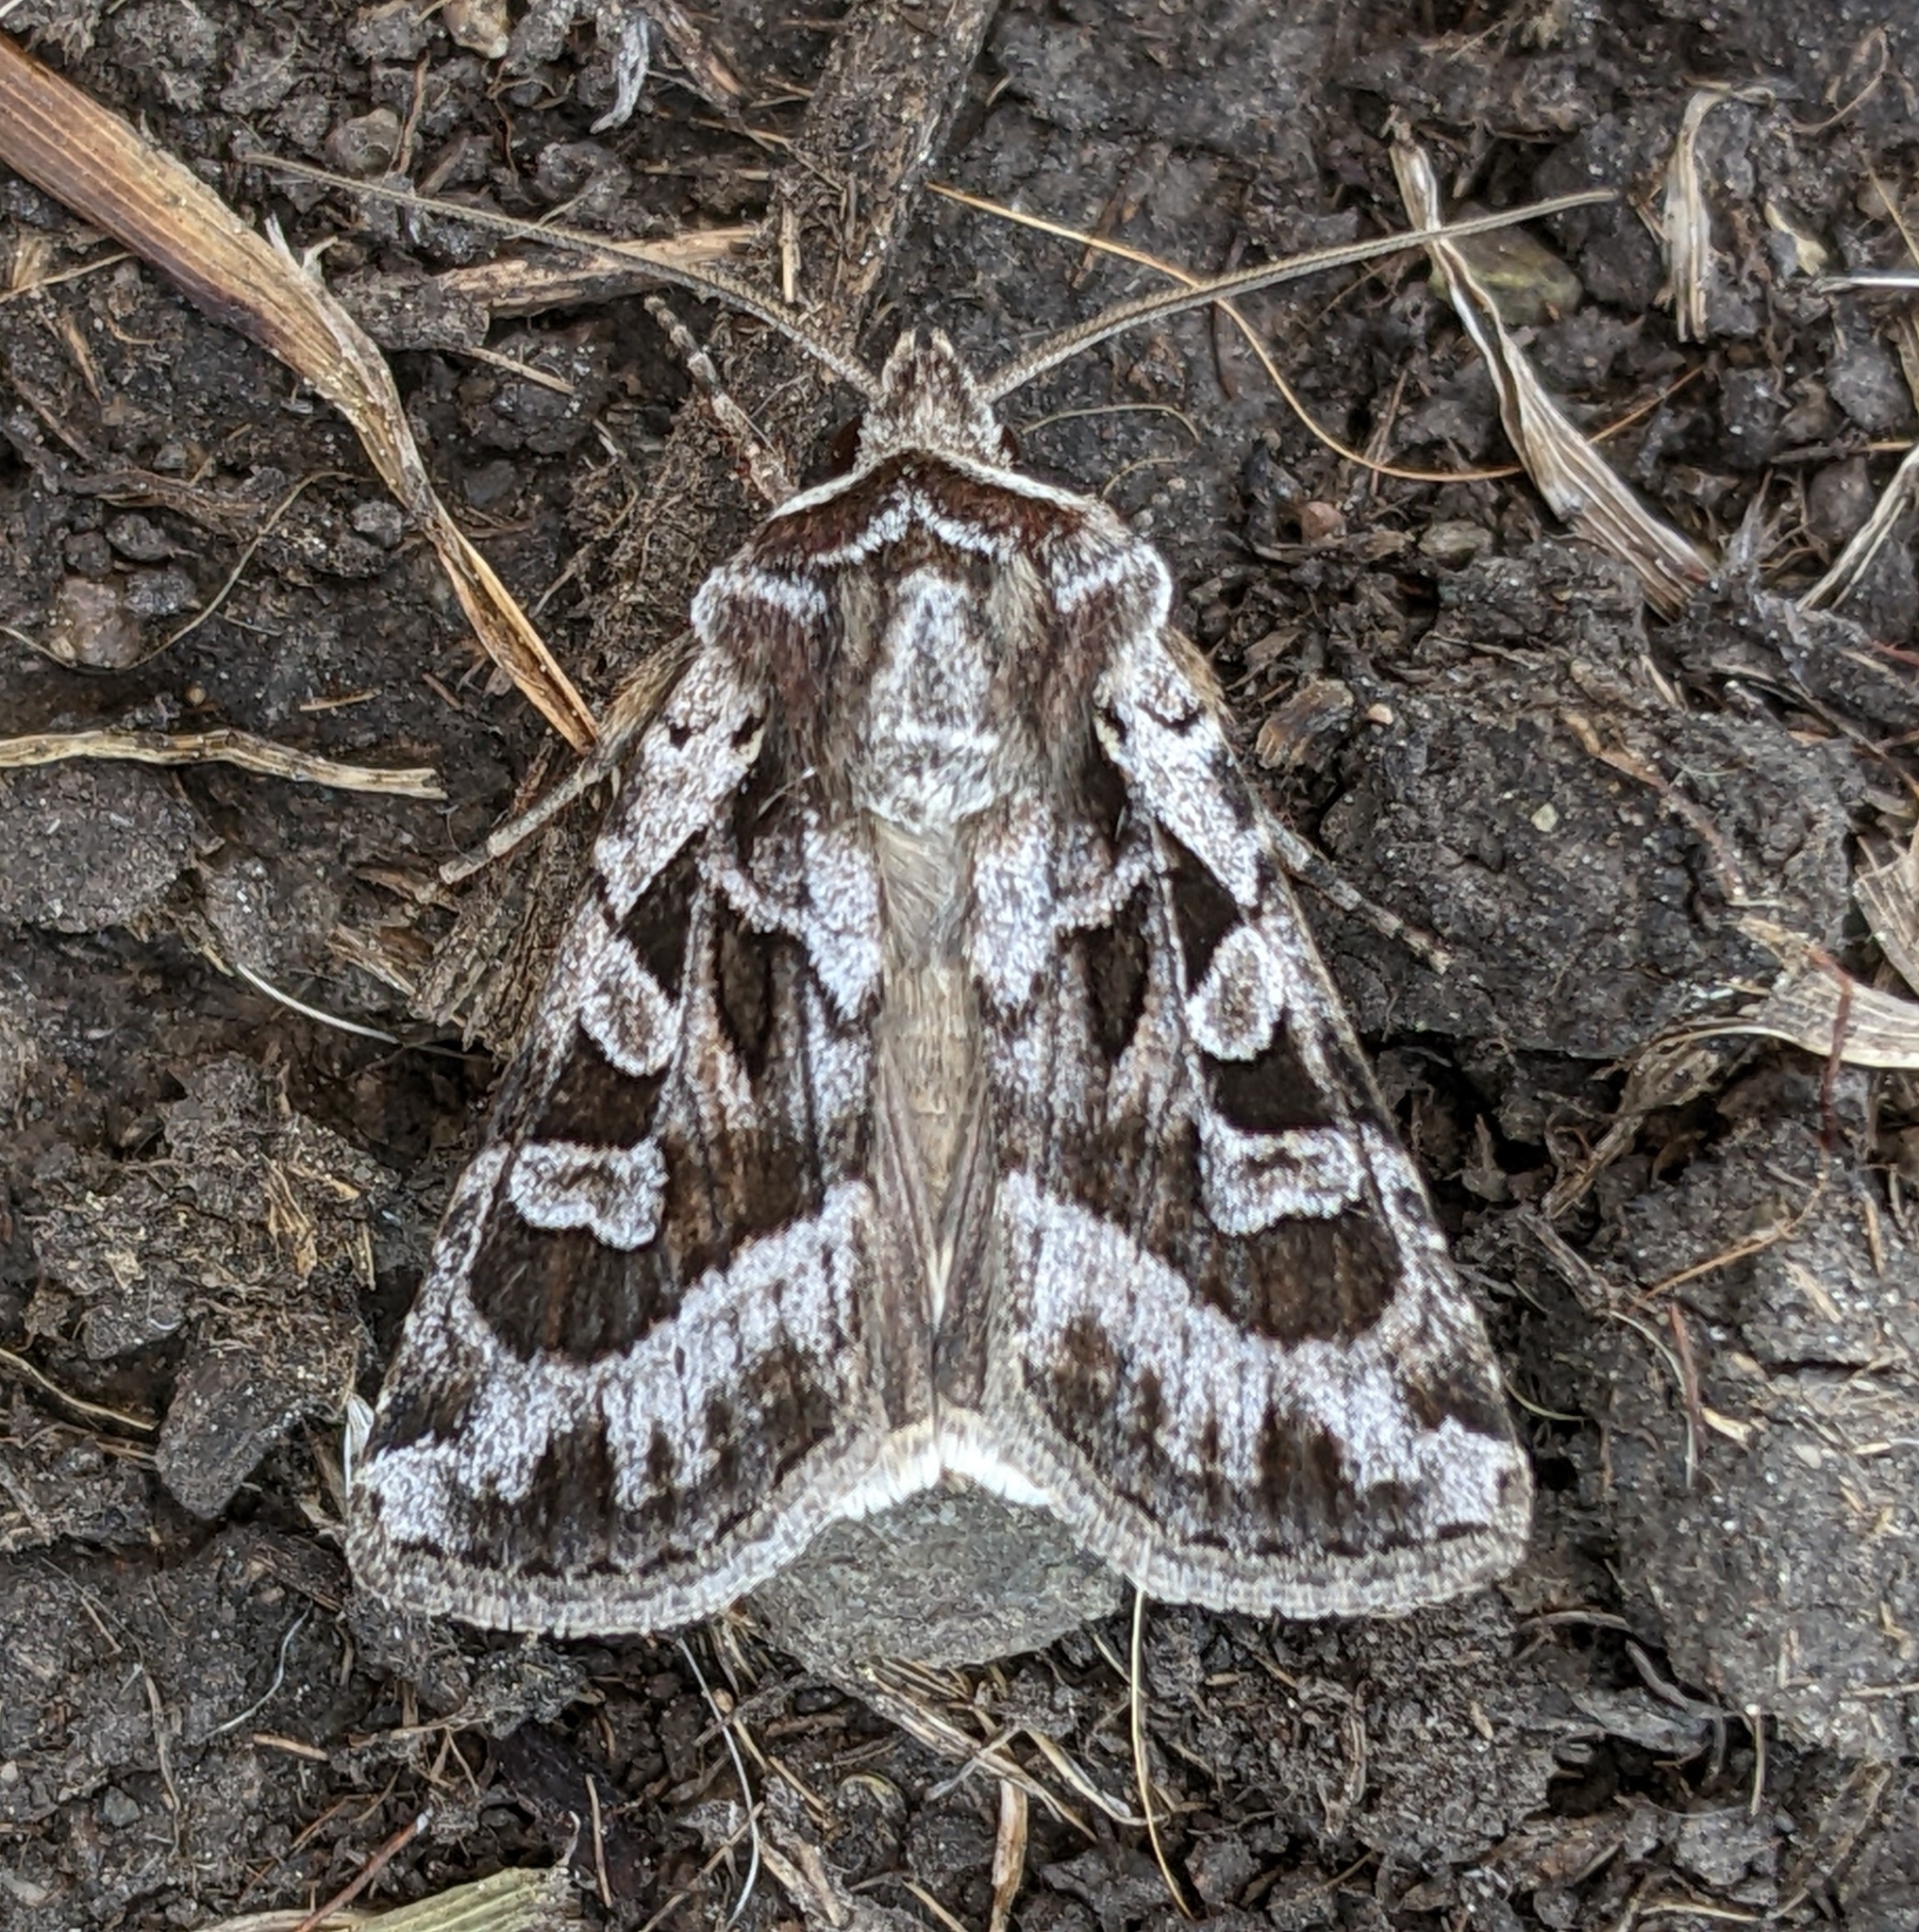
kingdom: Animalia
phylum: Arthropoda
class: Insecta
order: Lepidoptera
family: Noctuidae
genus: Euxoa
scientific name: Euxoa servita
